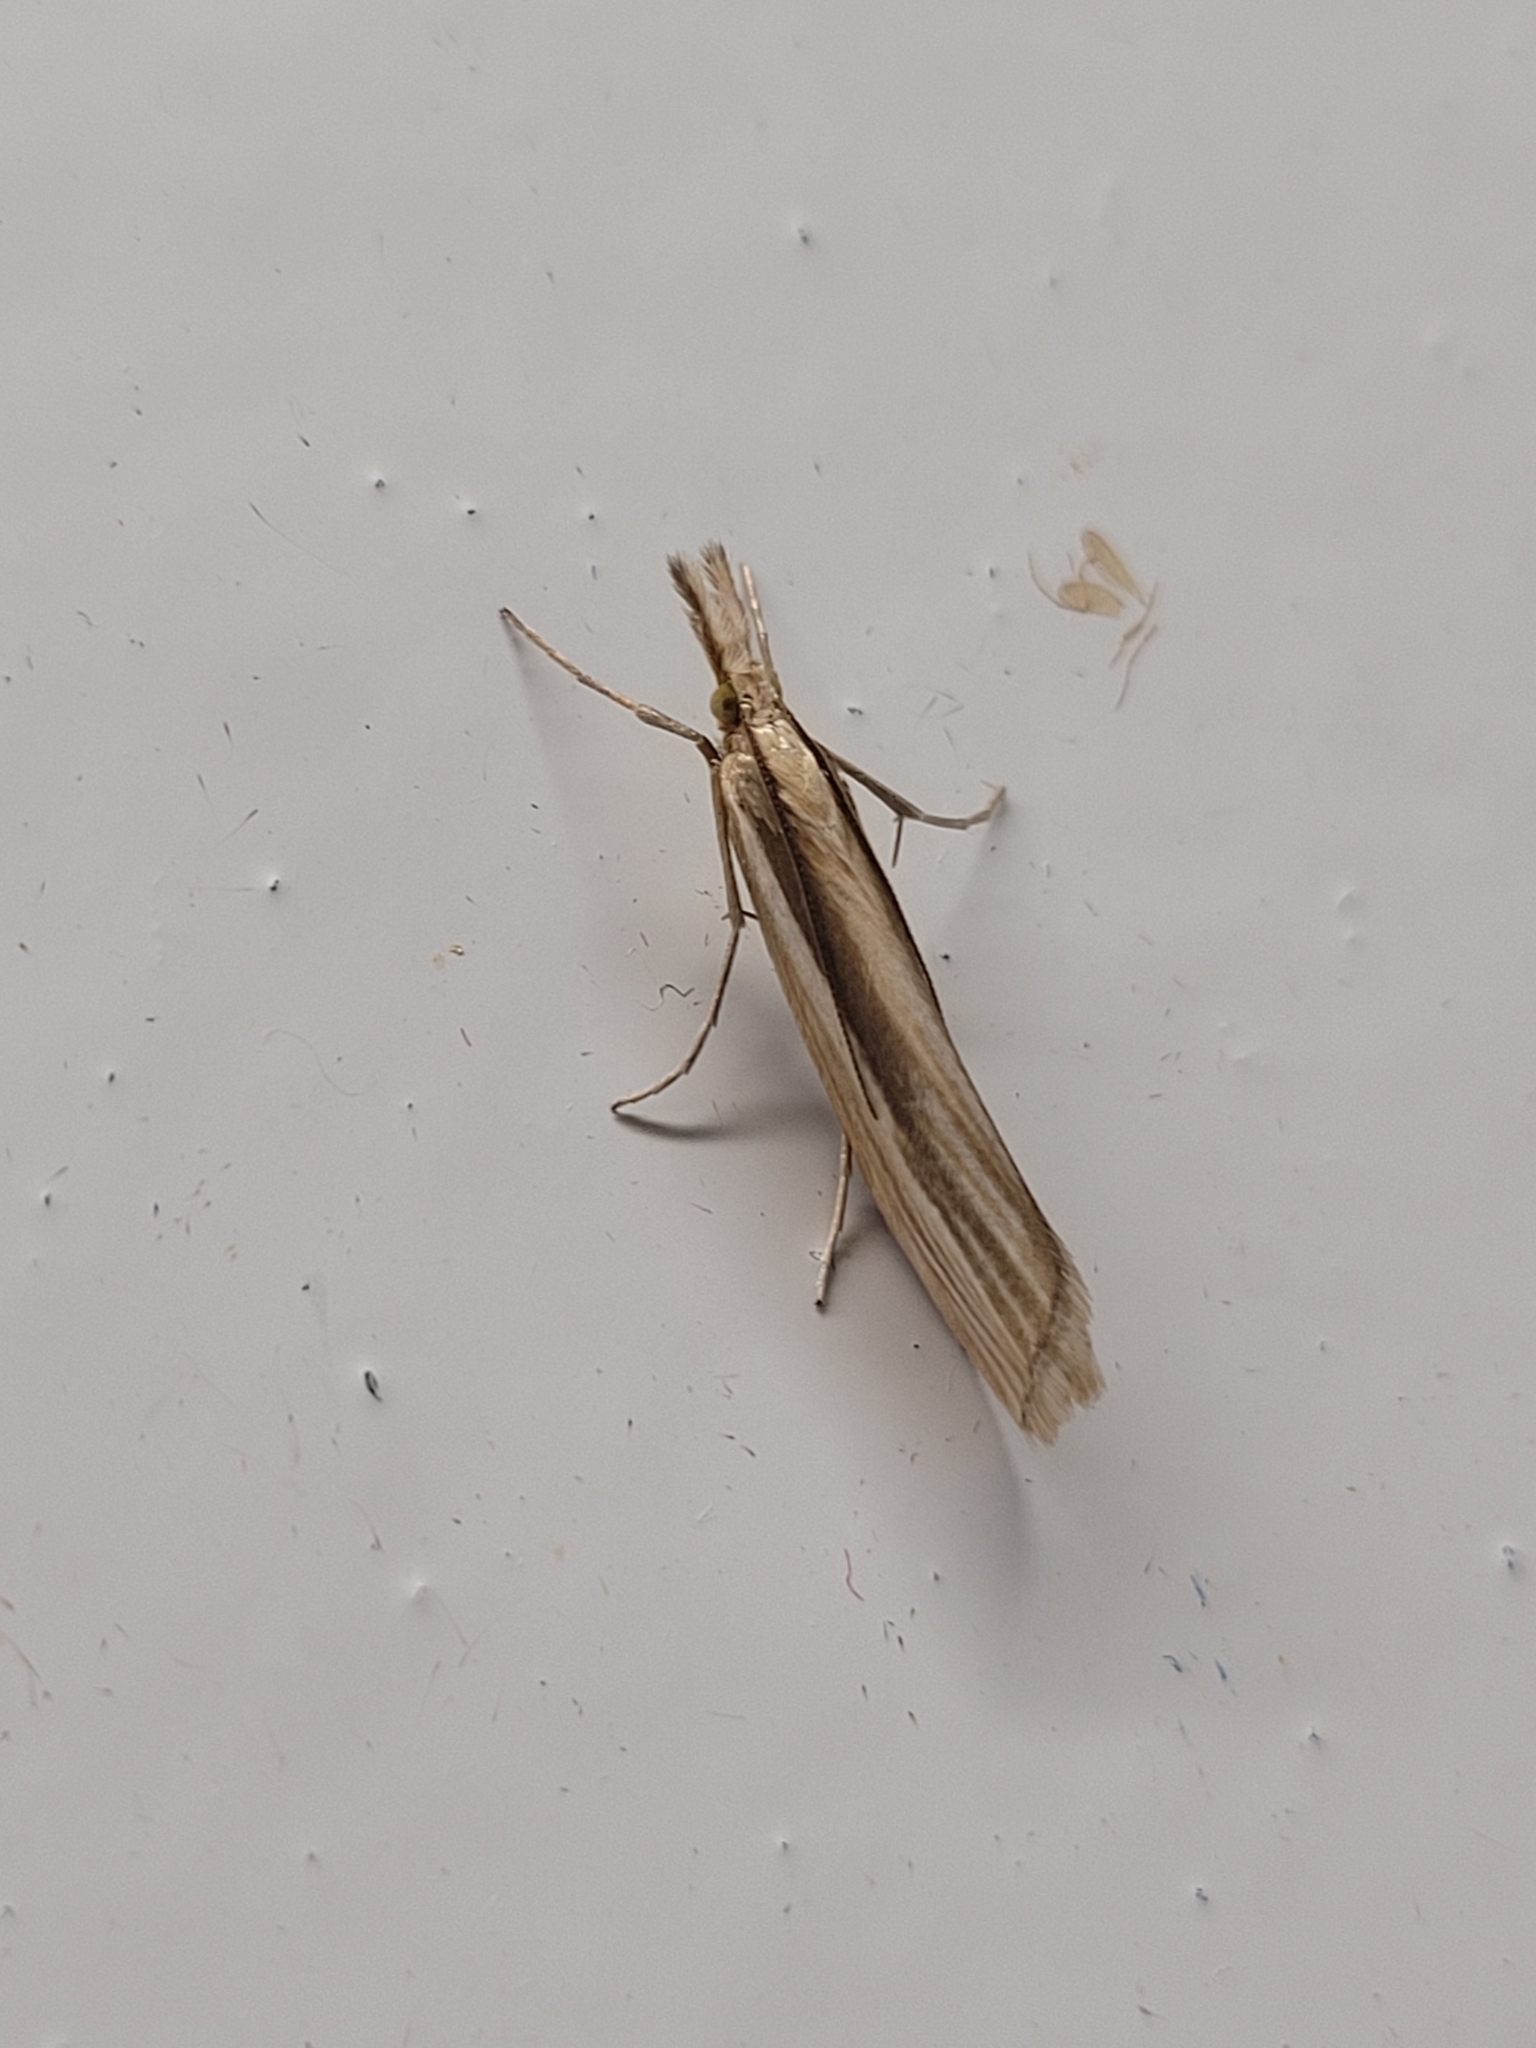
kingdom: Animalia
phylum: Arthropoda
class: Insecta
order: Lepidoptera
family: Crambidae
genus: Orocrambus
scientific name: Orocrambus ramosellus
